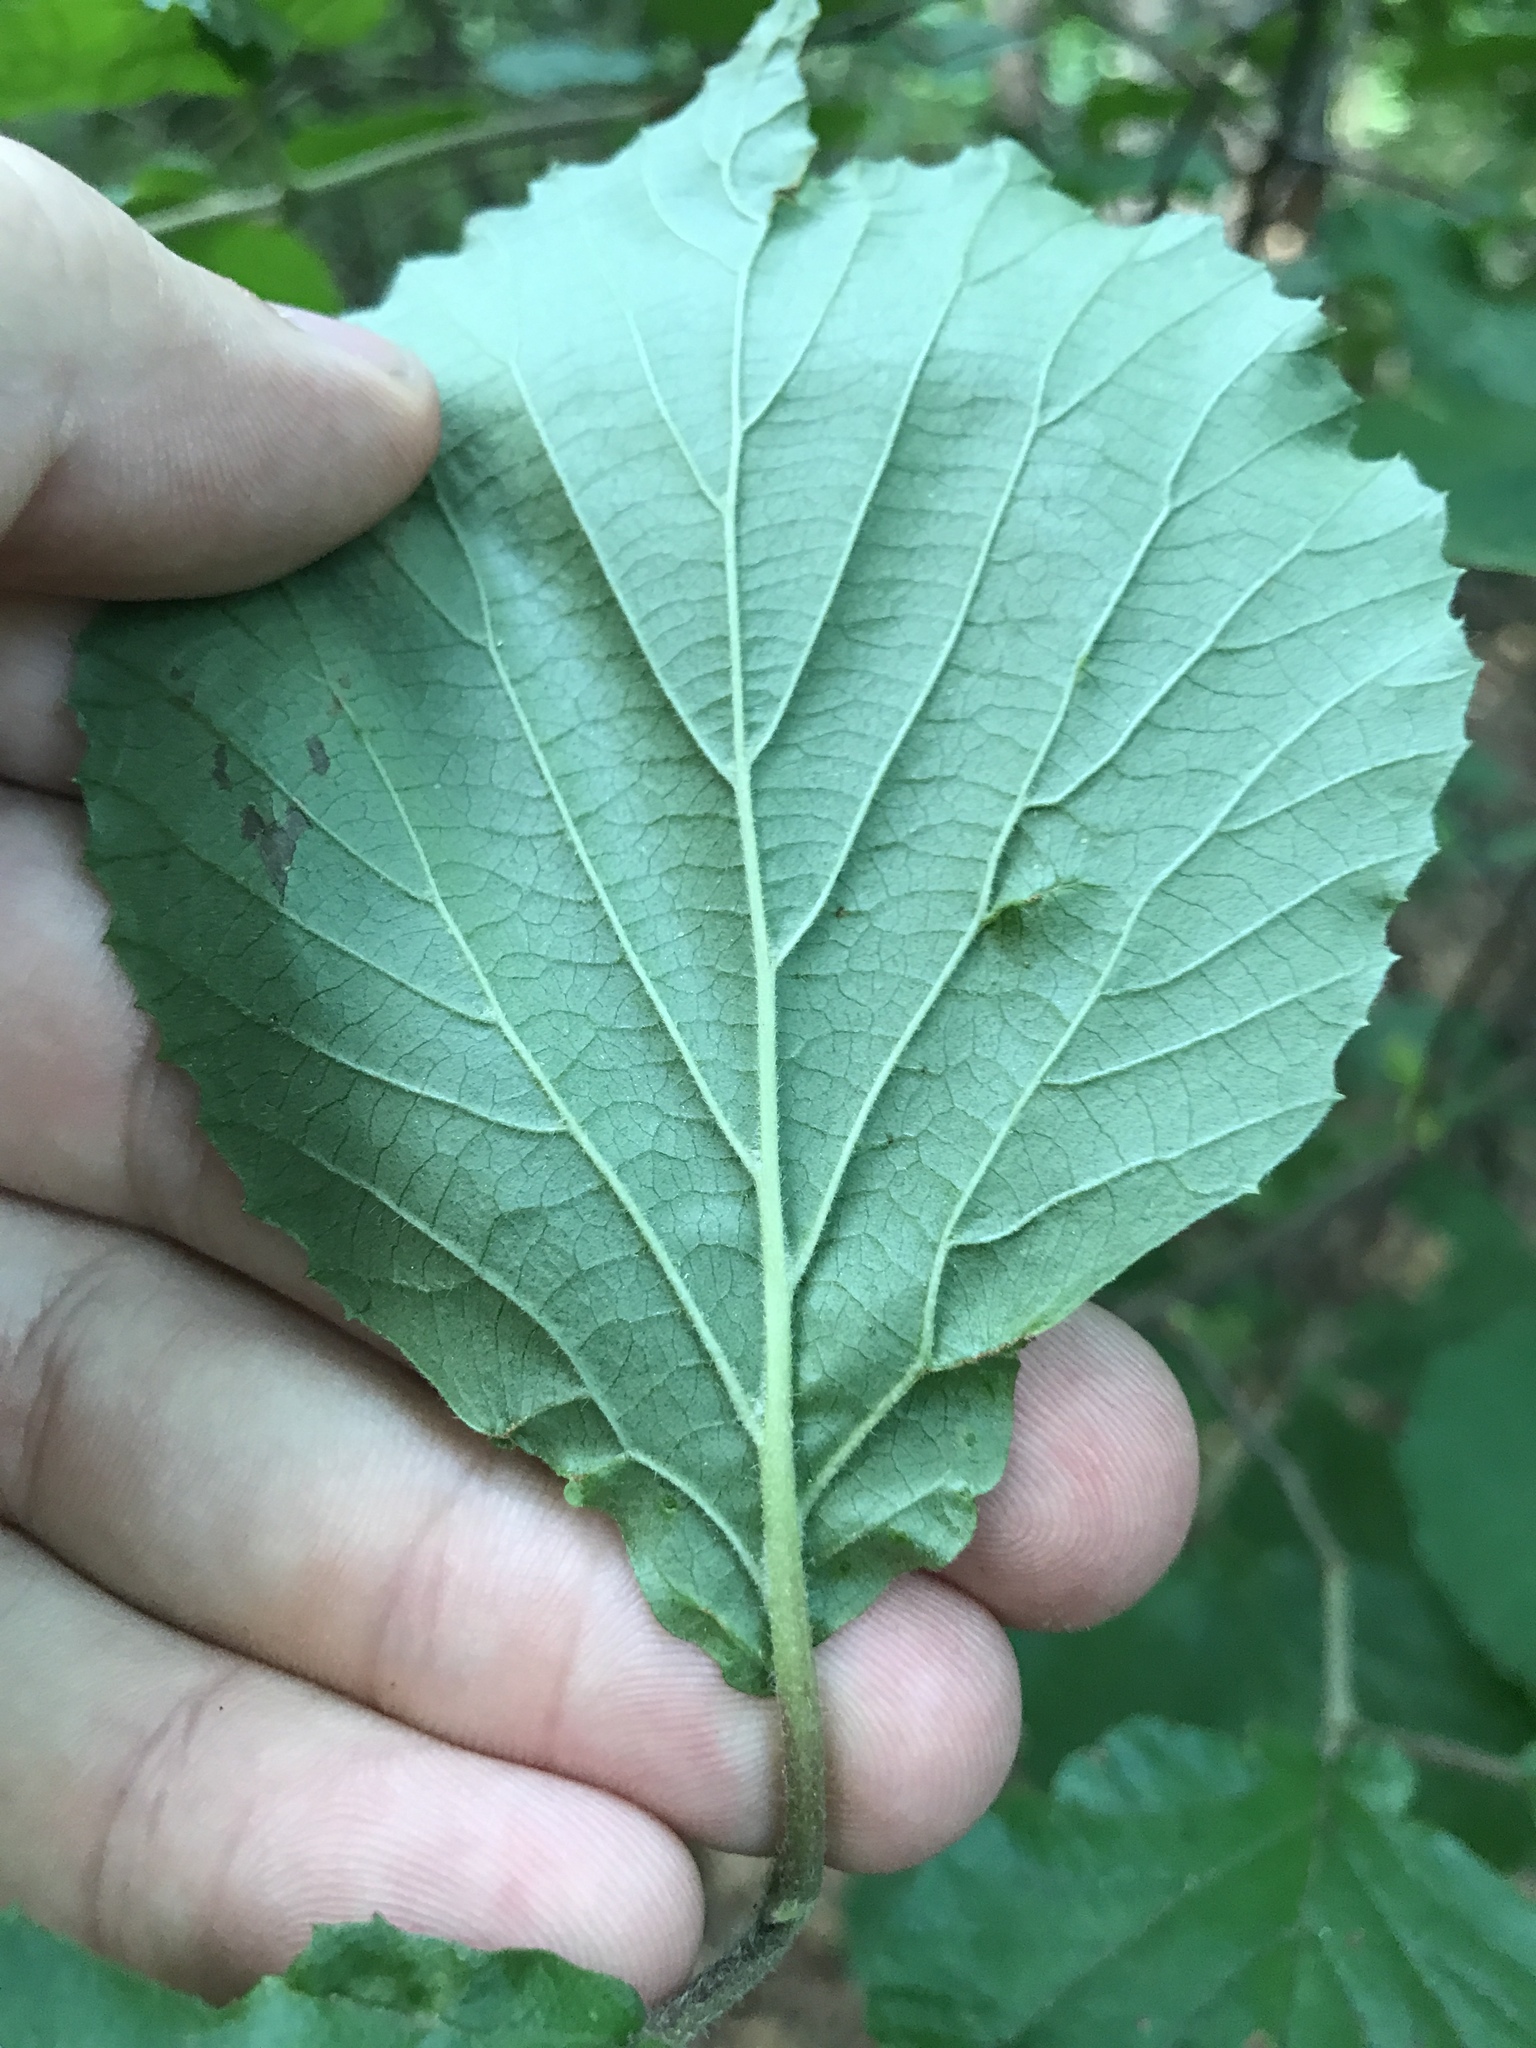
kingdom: Plantae
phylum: Tracheophyta
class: Magnoliopsida
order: Dipsacales
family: Viburnaceae
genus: Viburnum
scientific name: Viburnum dilatatum
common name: Linden arrowwood
